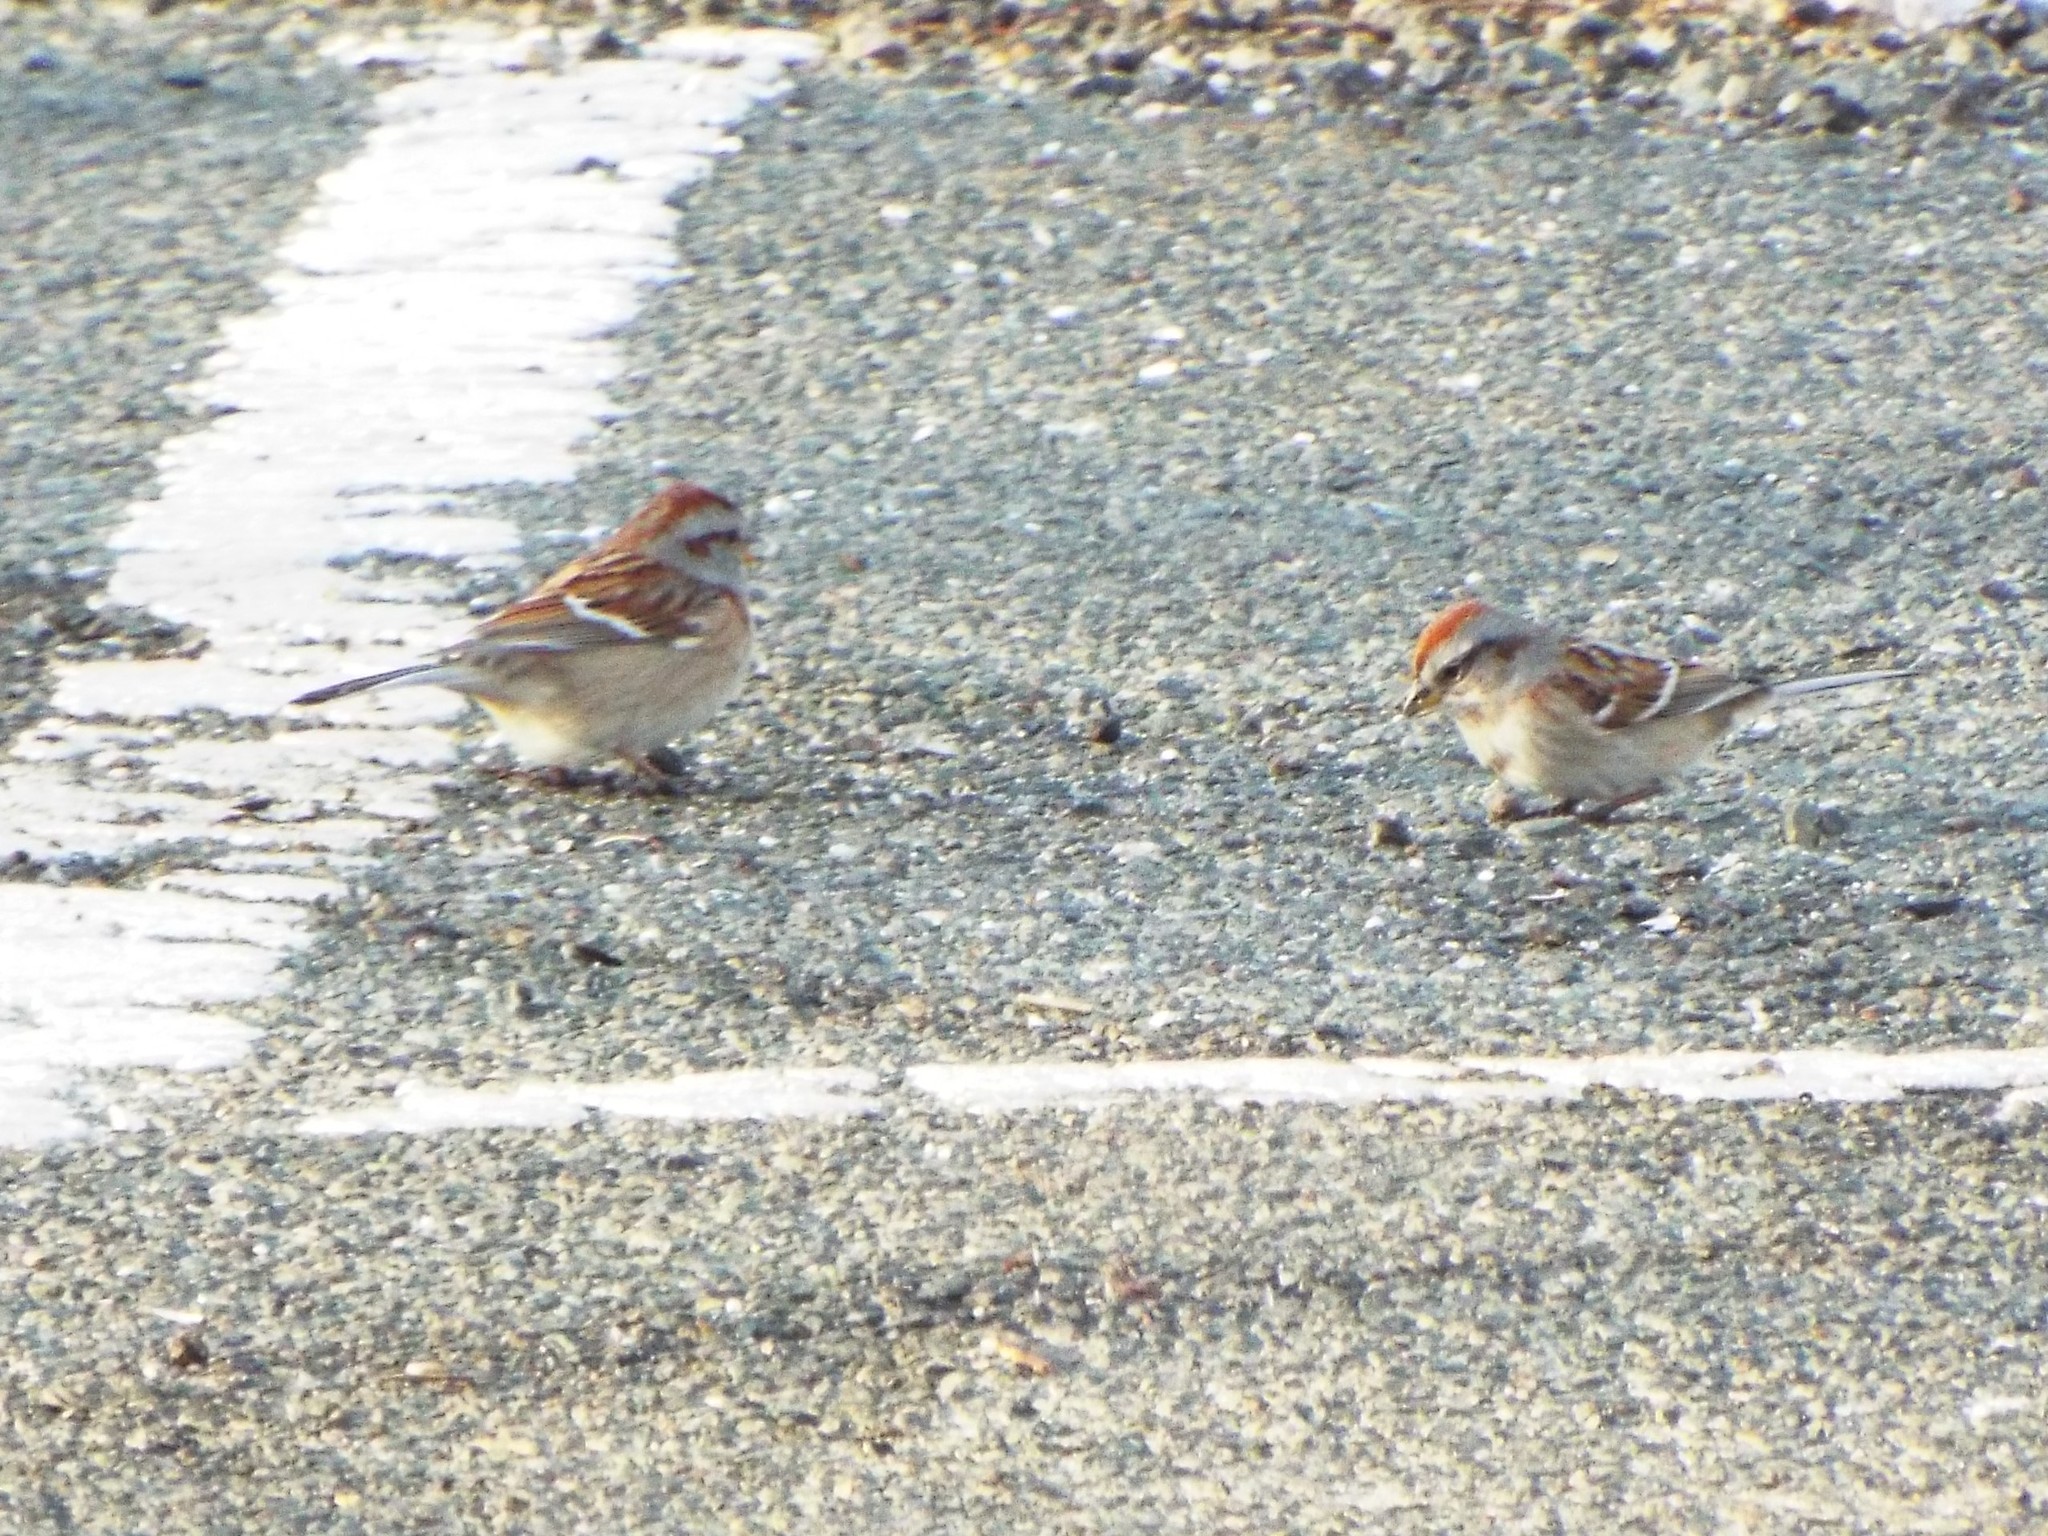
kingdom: Animalia
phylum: Chordata
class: Aves
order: Passeriformes
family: Passerellidae
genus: Spizelloides
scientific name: Spizelloides arborea
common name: American tree sparrow
